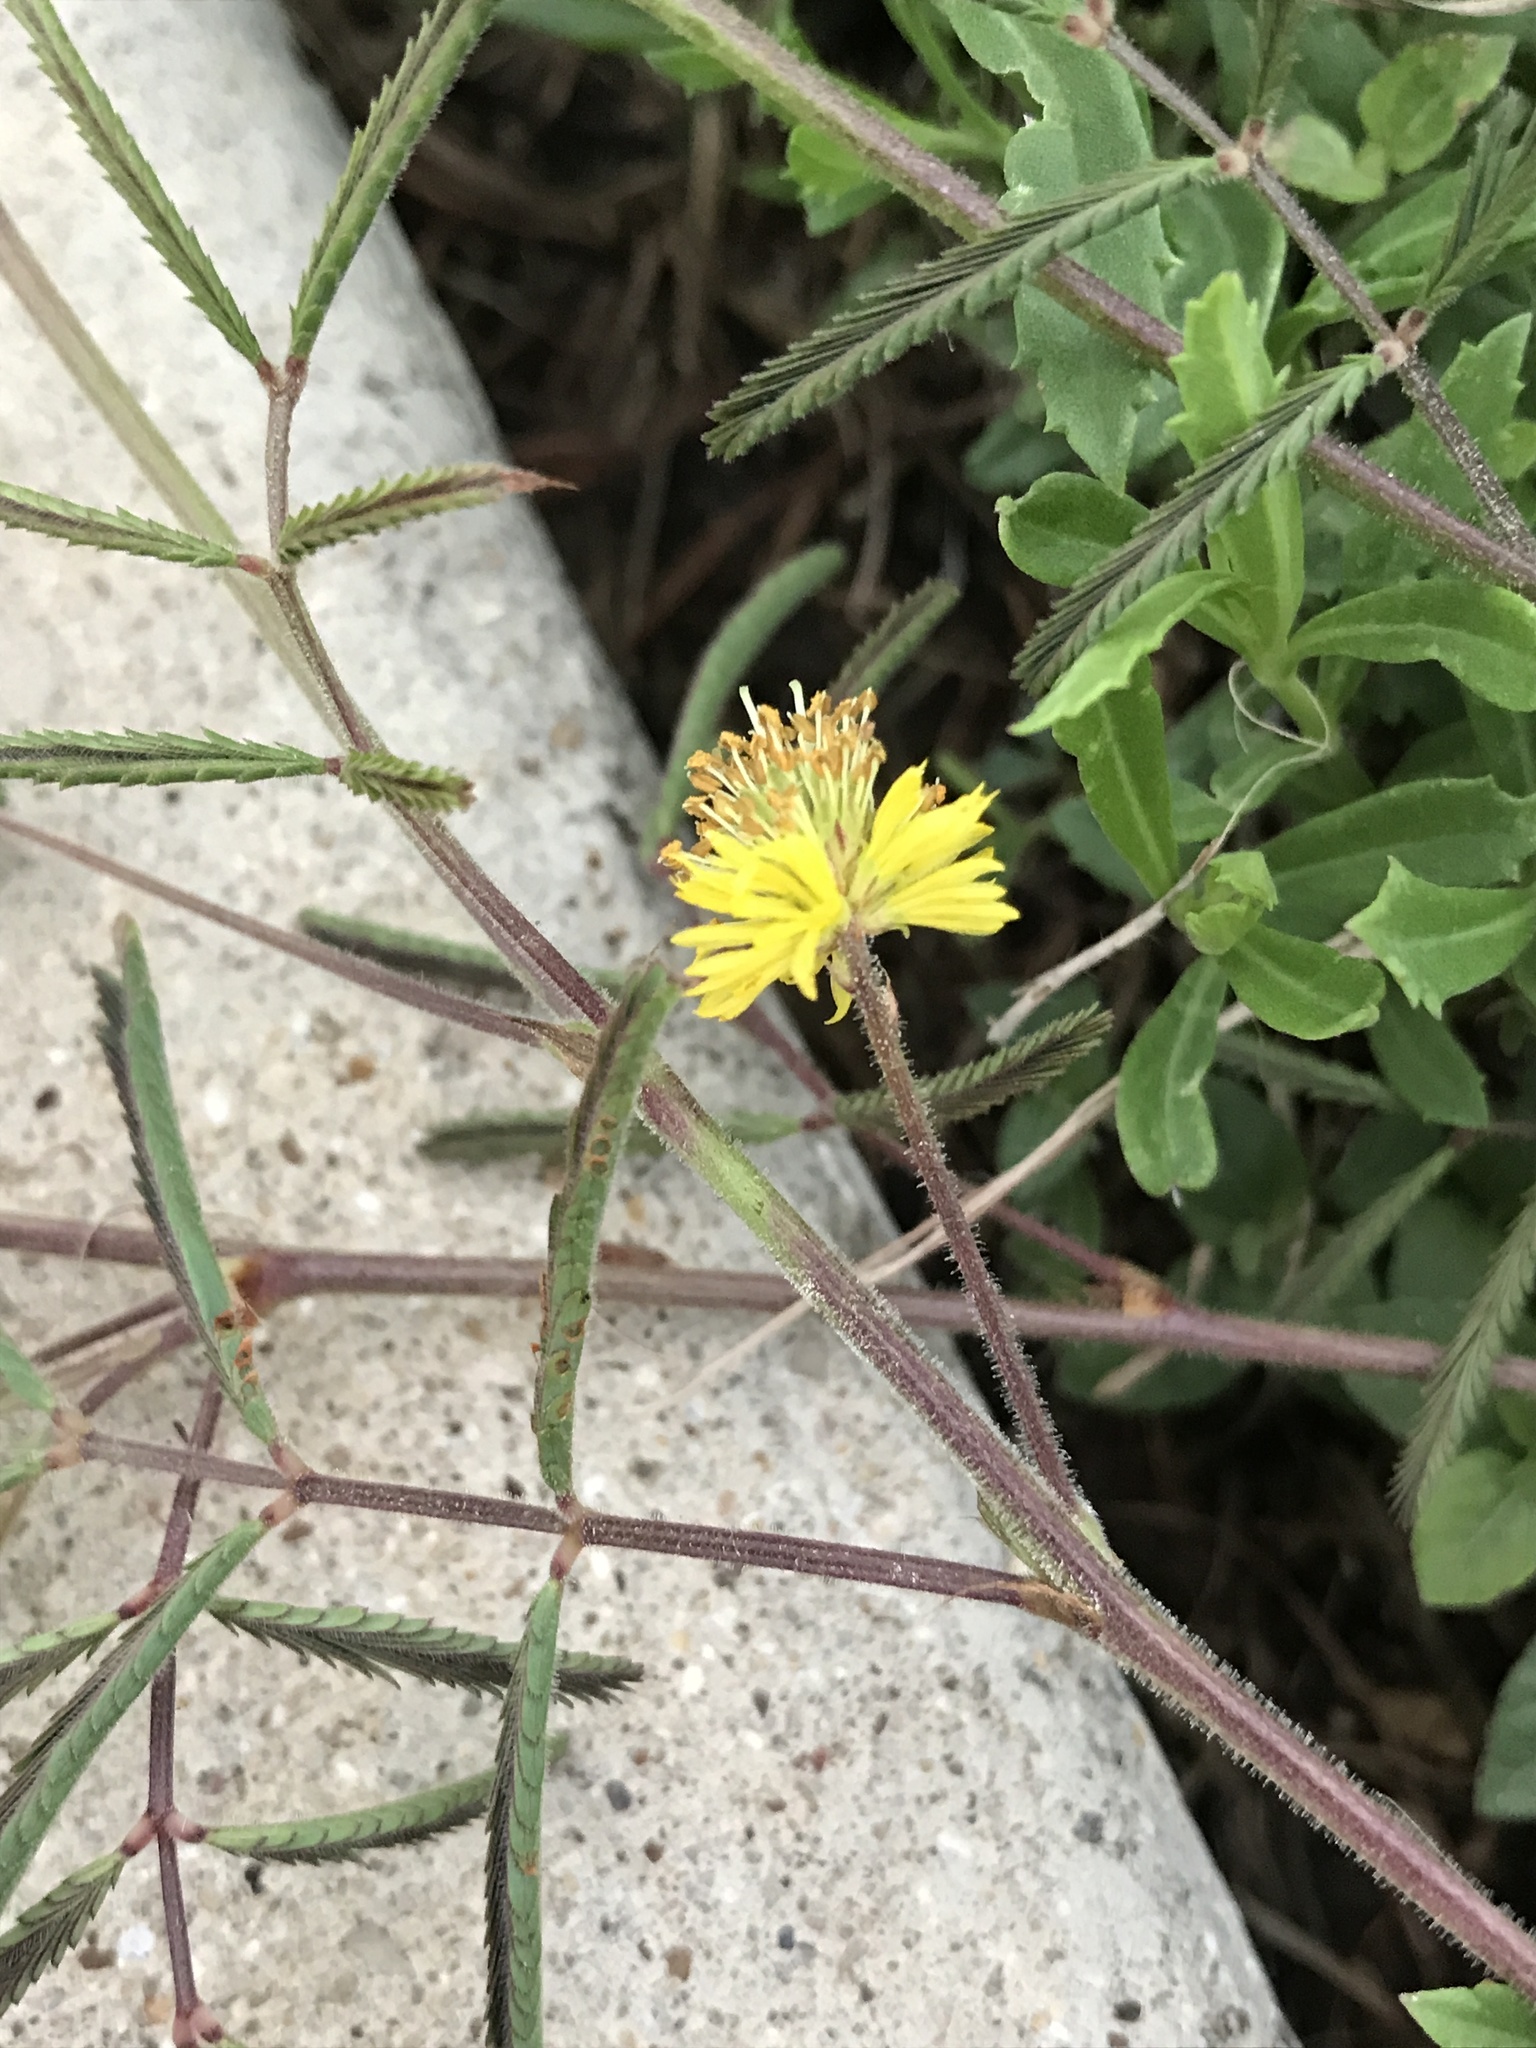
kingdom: Plantae
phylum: Tracheophyta
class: Magnoliopsida
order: Fabales
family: Fabaceae
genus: Neptunia
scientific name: Neptunia pubescens
